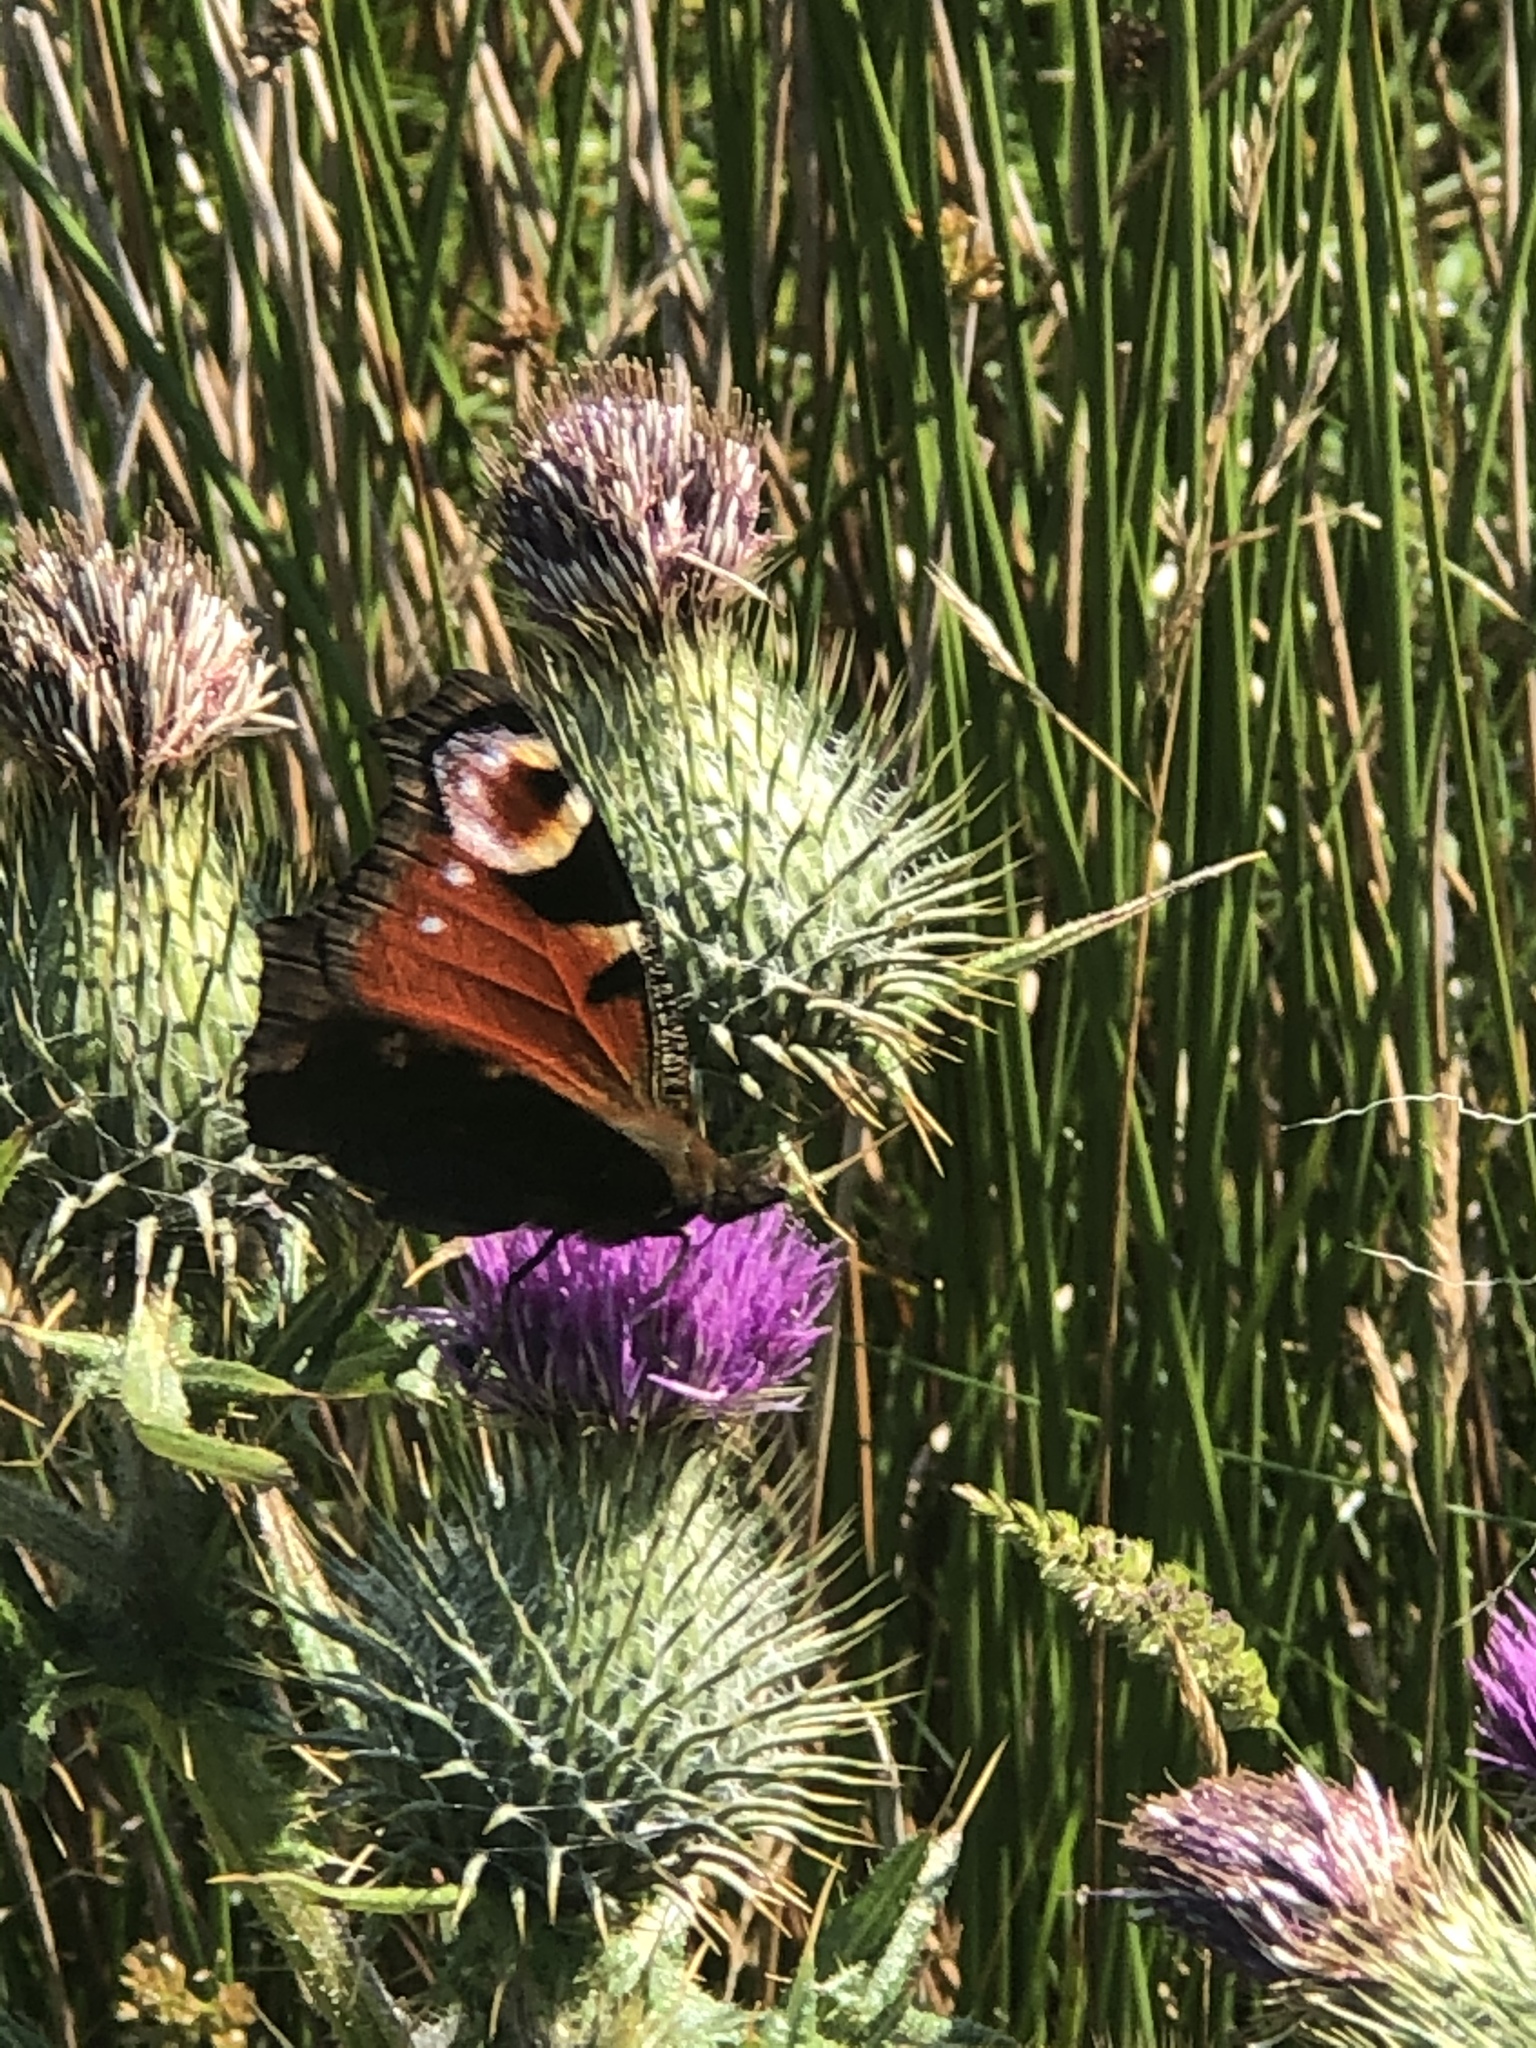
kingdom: Animalia
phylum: Arthropoda
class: Insecta
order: Lepidoptera
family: Nymphalidae
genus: Aglais
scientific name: Aglais io
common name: Peacock
